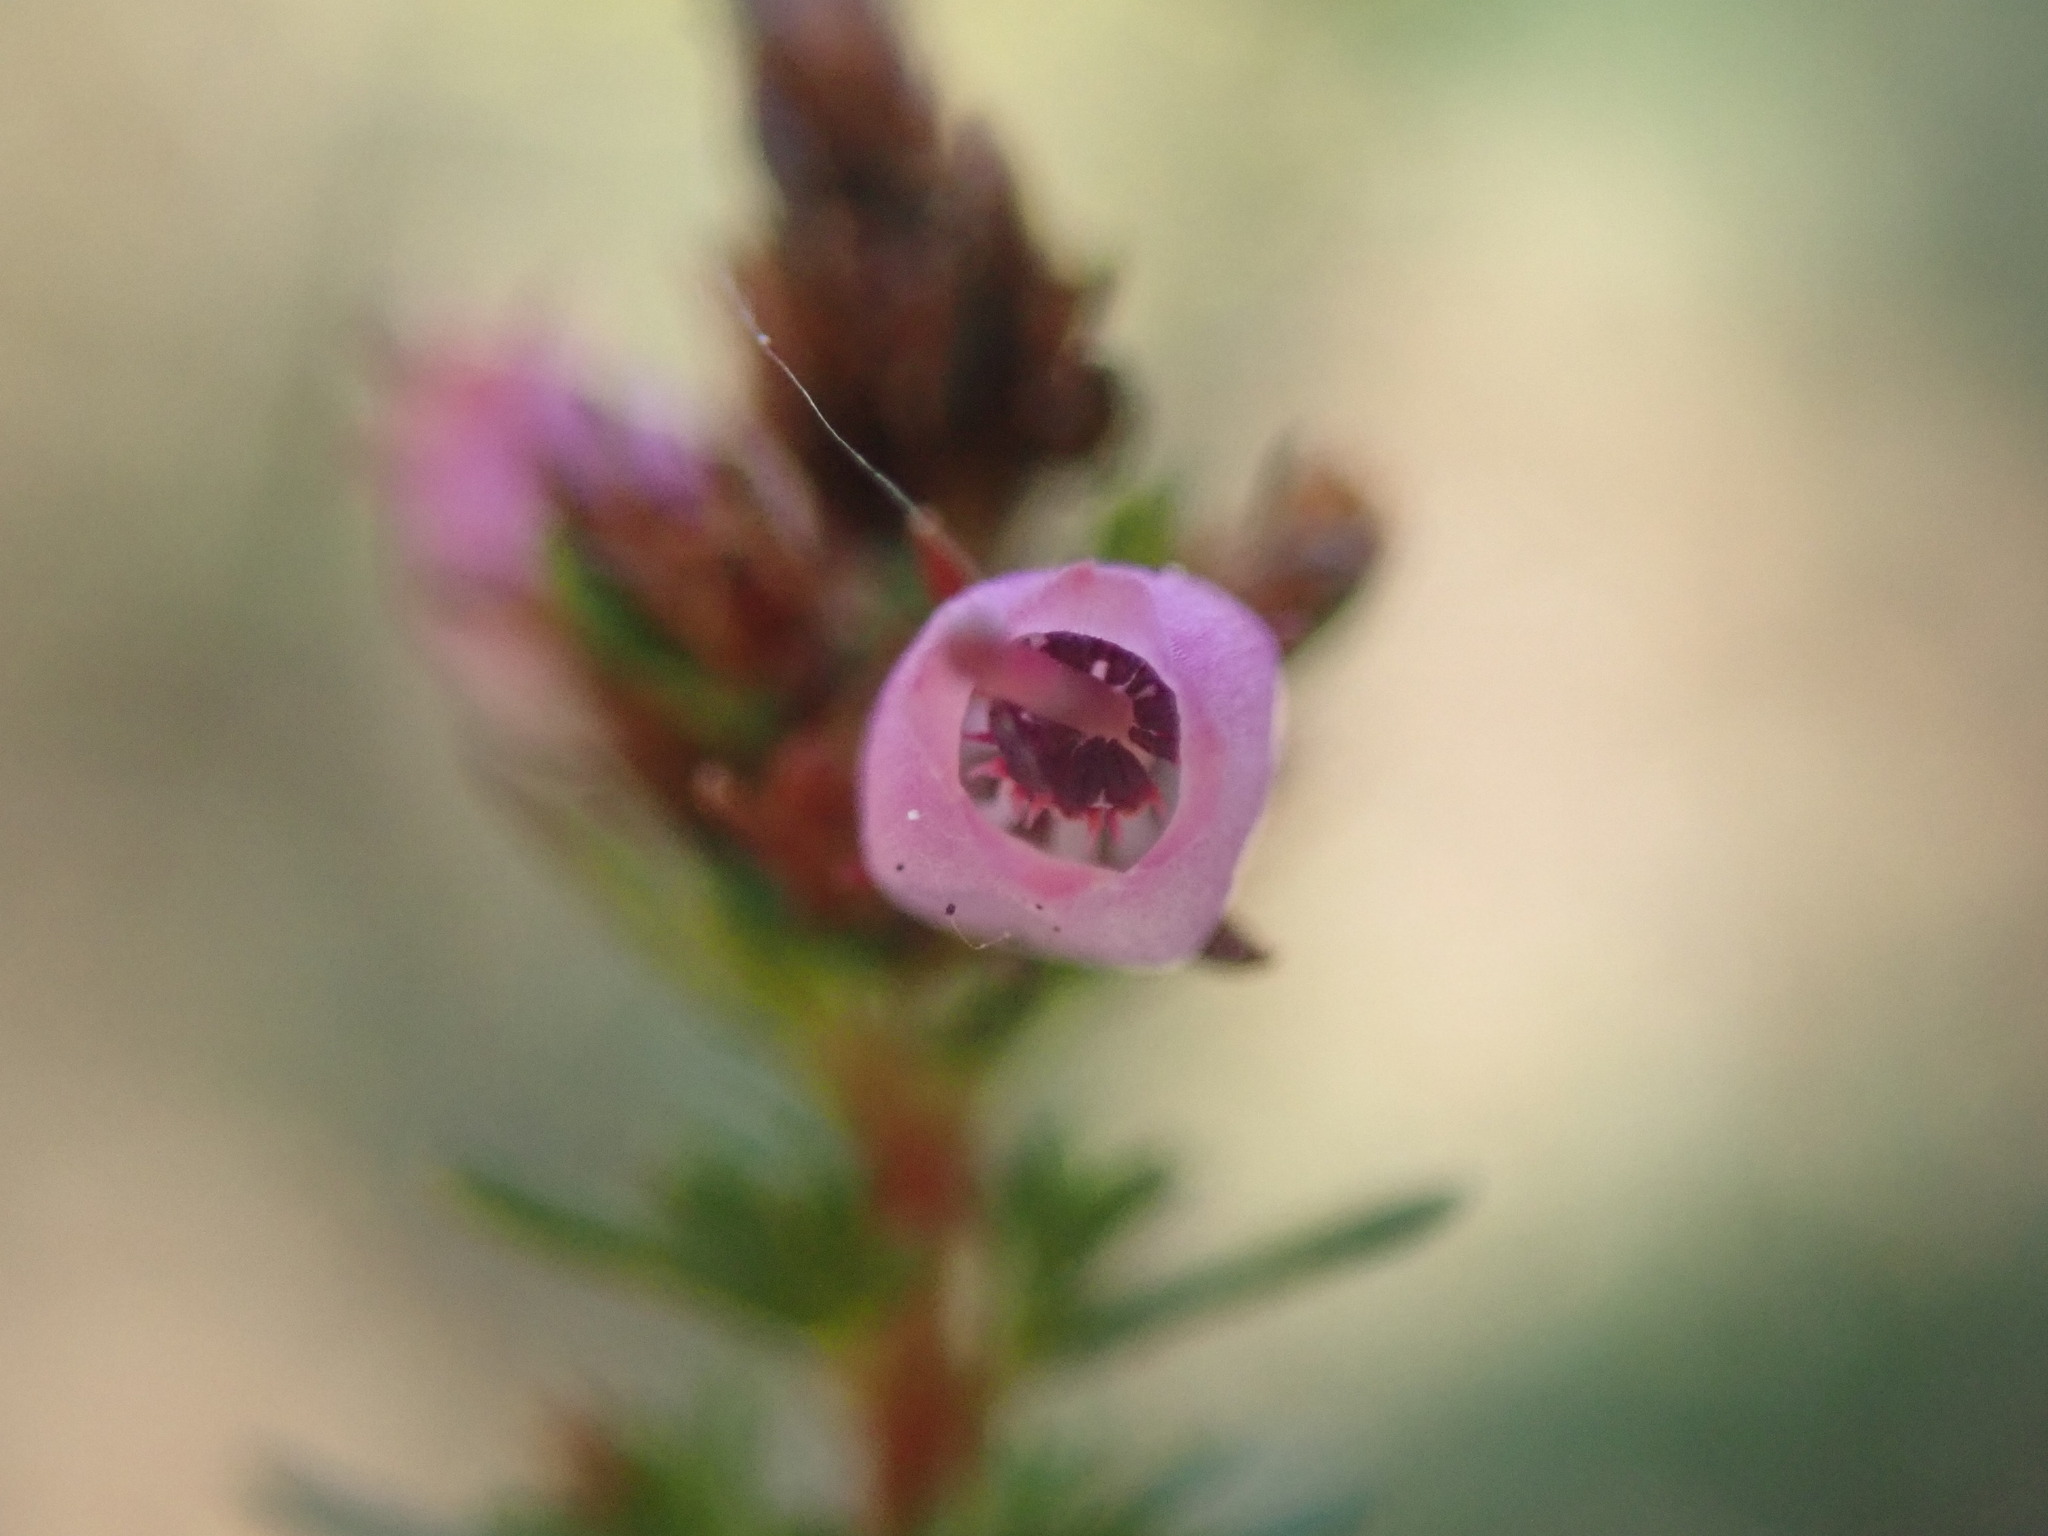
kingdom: Plantae
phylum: Tracheophyta
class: Magnoliopsida
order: Ericales
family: Ericaceae
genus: Erica
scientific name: Erica cinerea
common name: Bell heather
